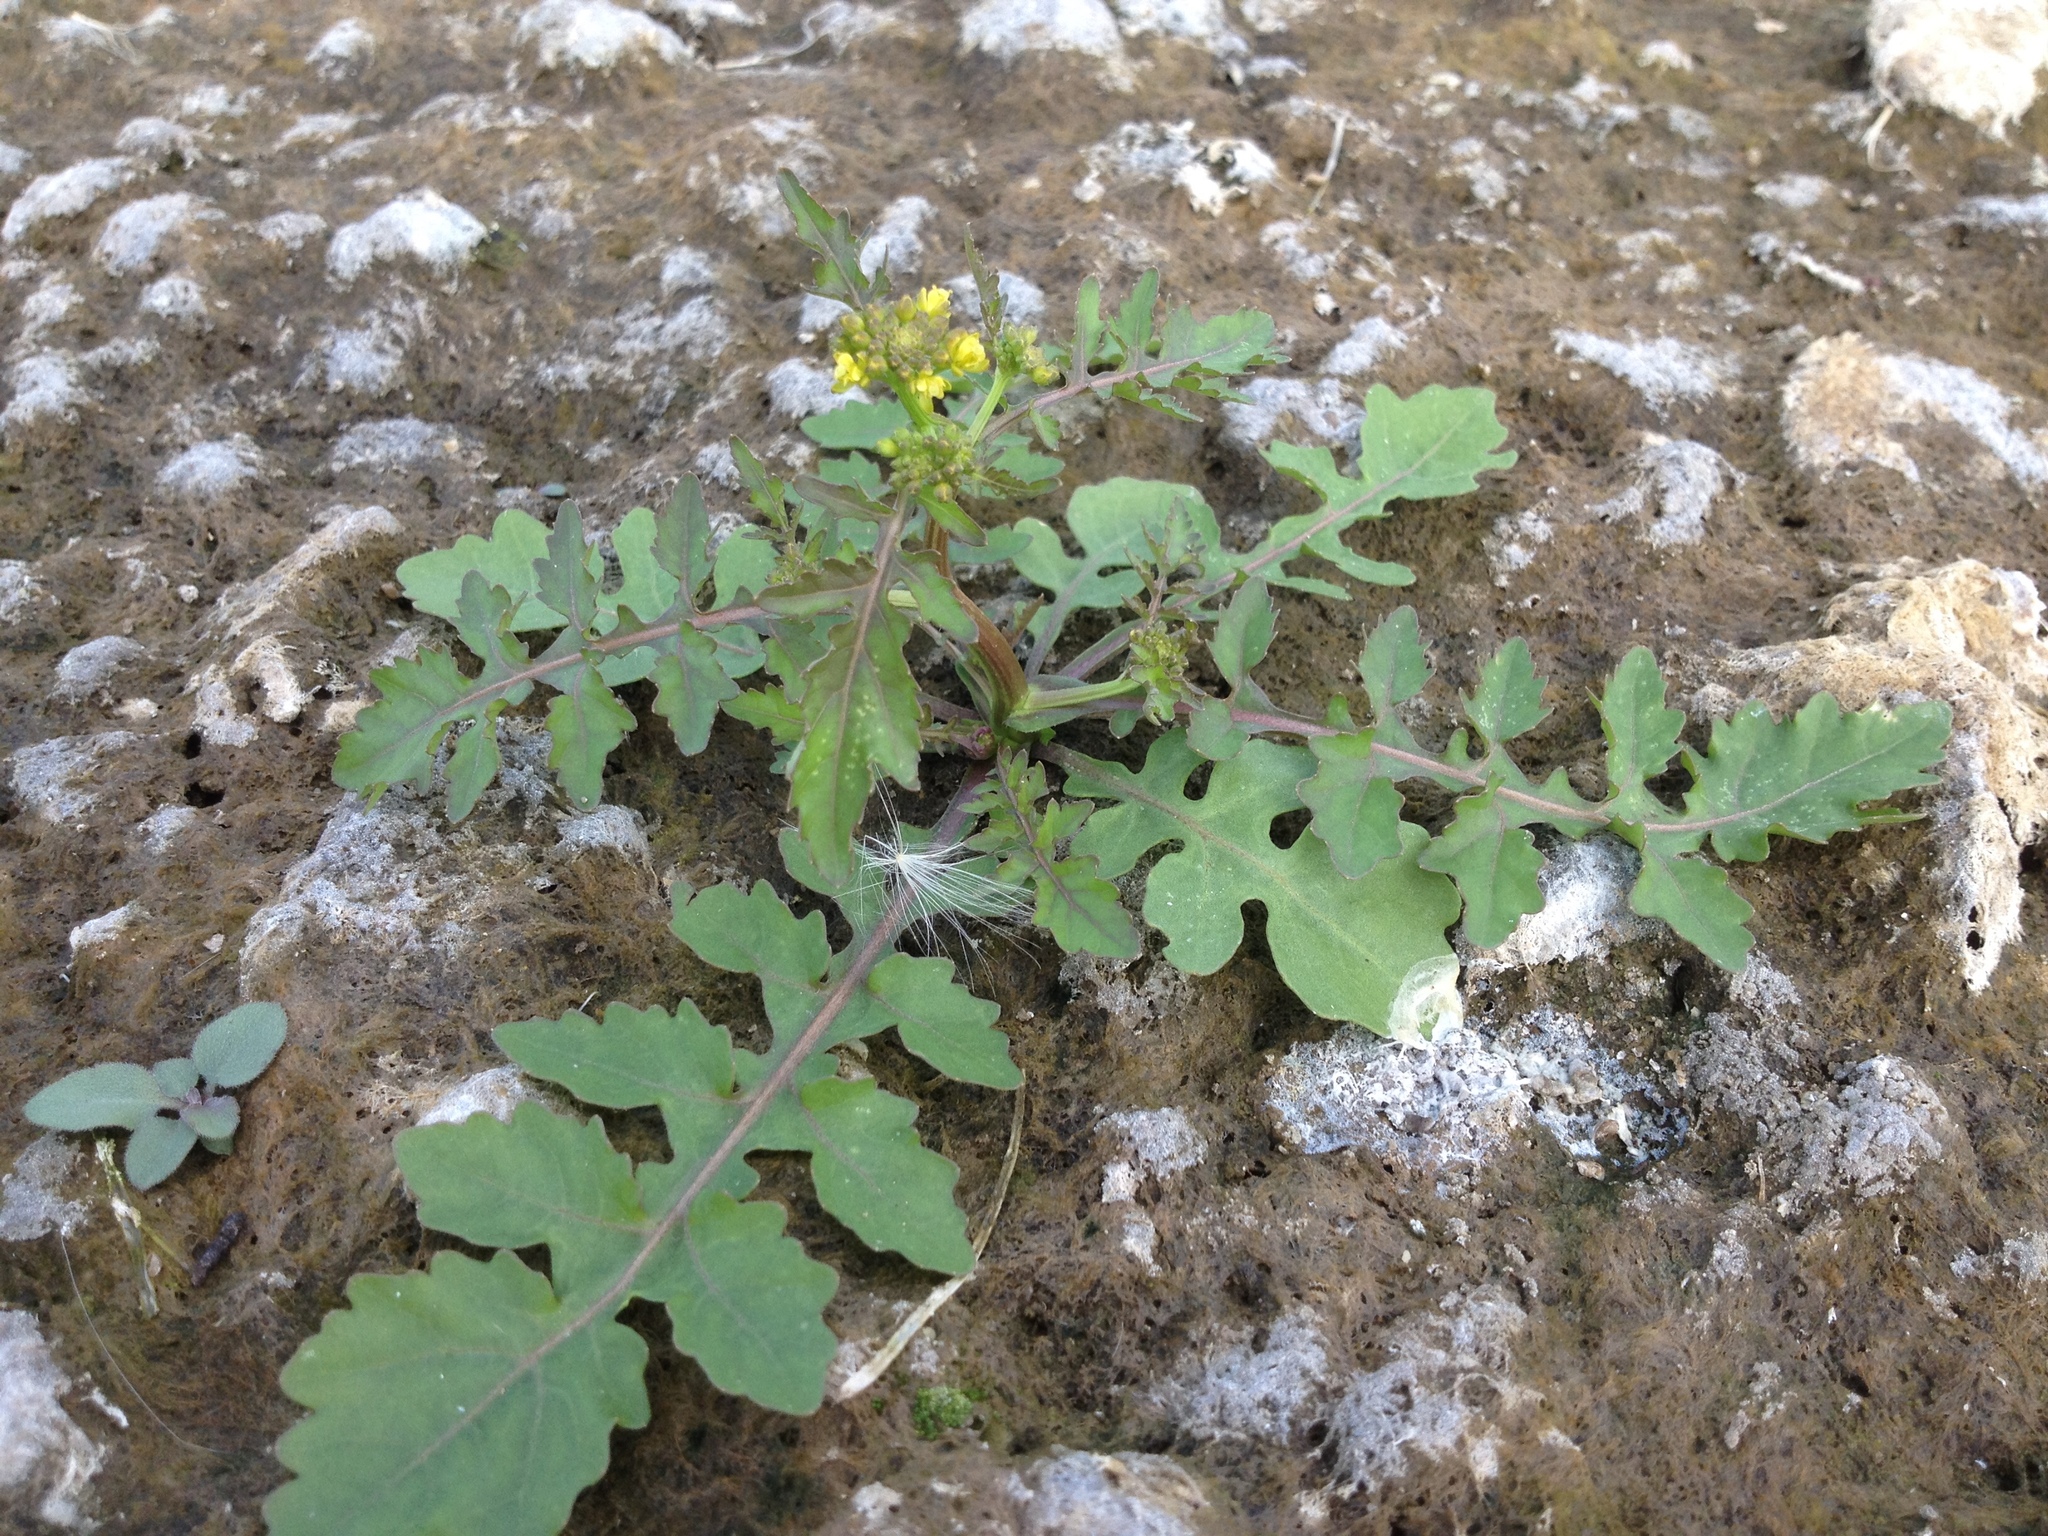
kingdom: Plantae
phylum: Tracheophyta
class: Magnoliopsida
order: Brassicales
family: Brassicaceae
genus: Rorippa
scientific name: Rorippa palustris
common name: Marsh yellow-cress
